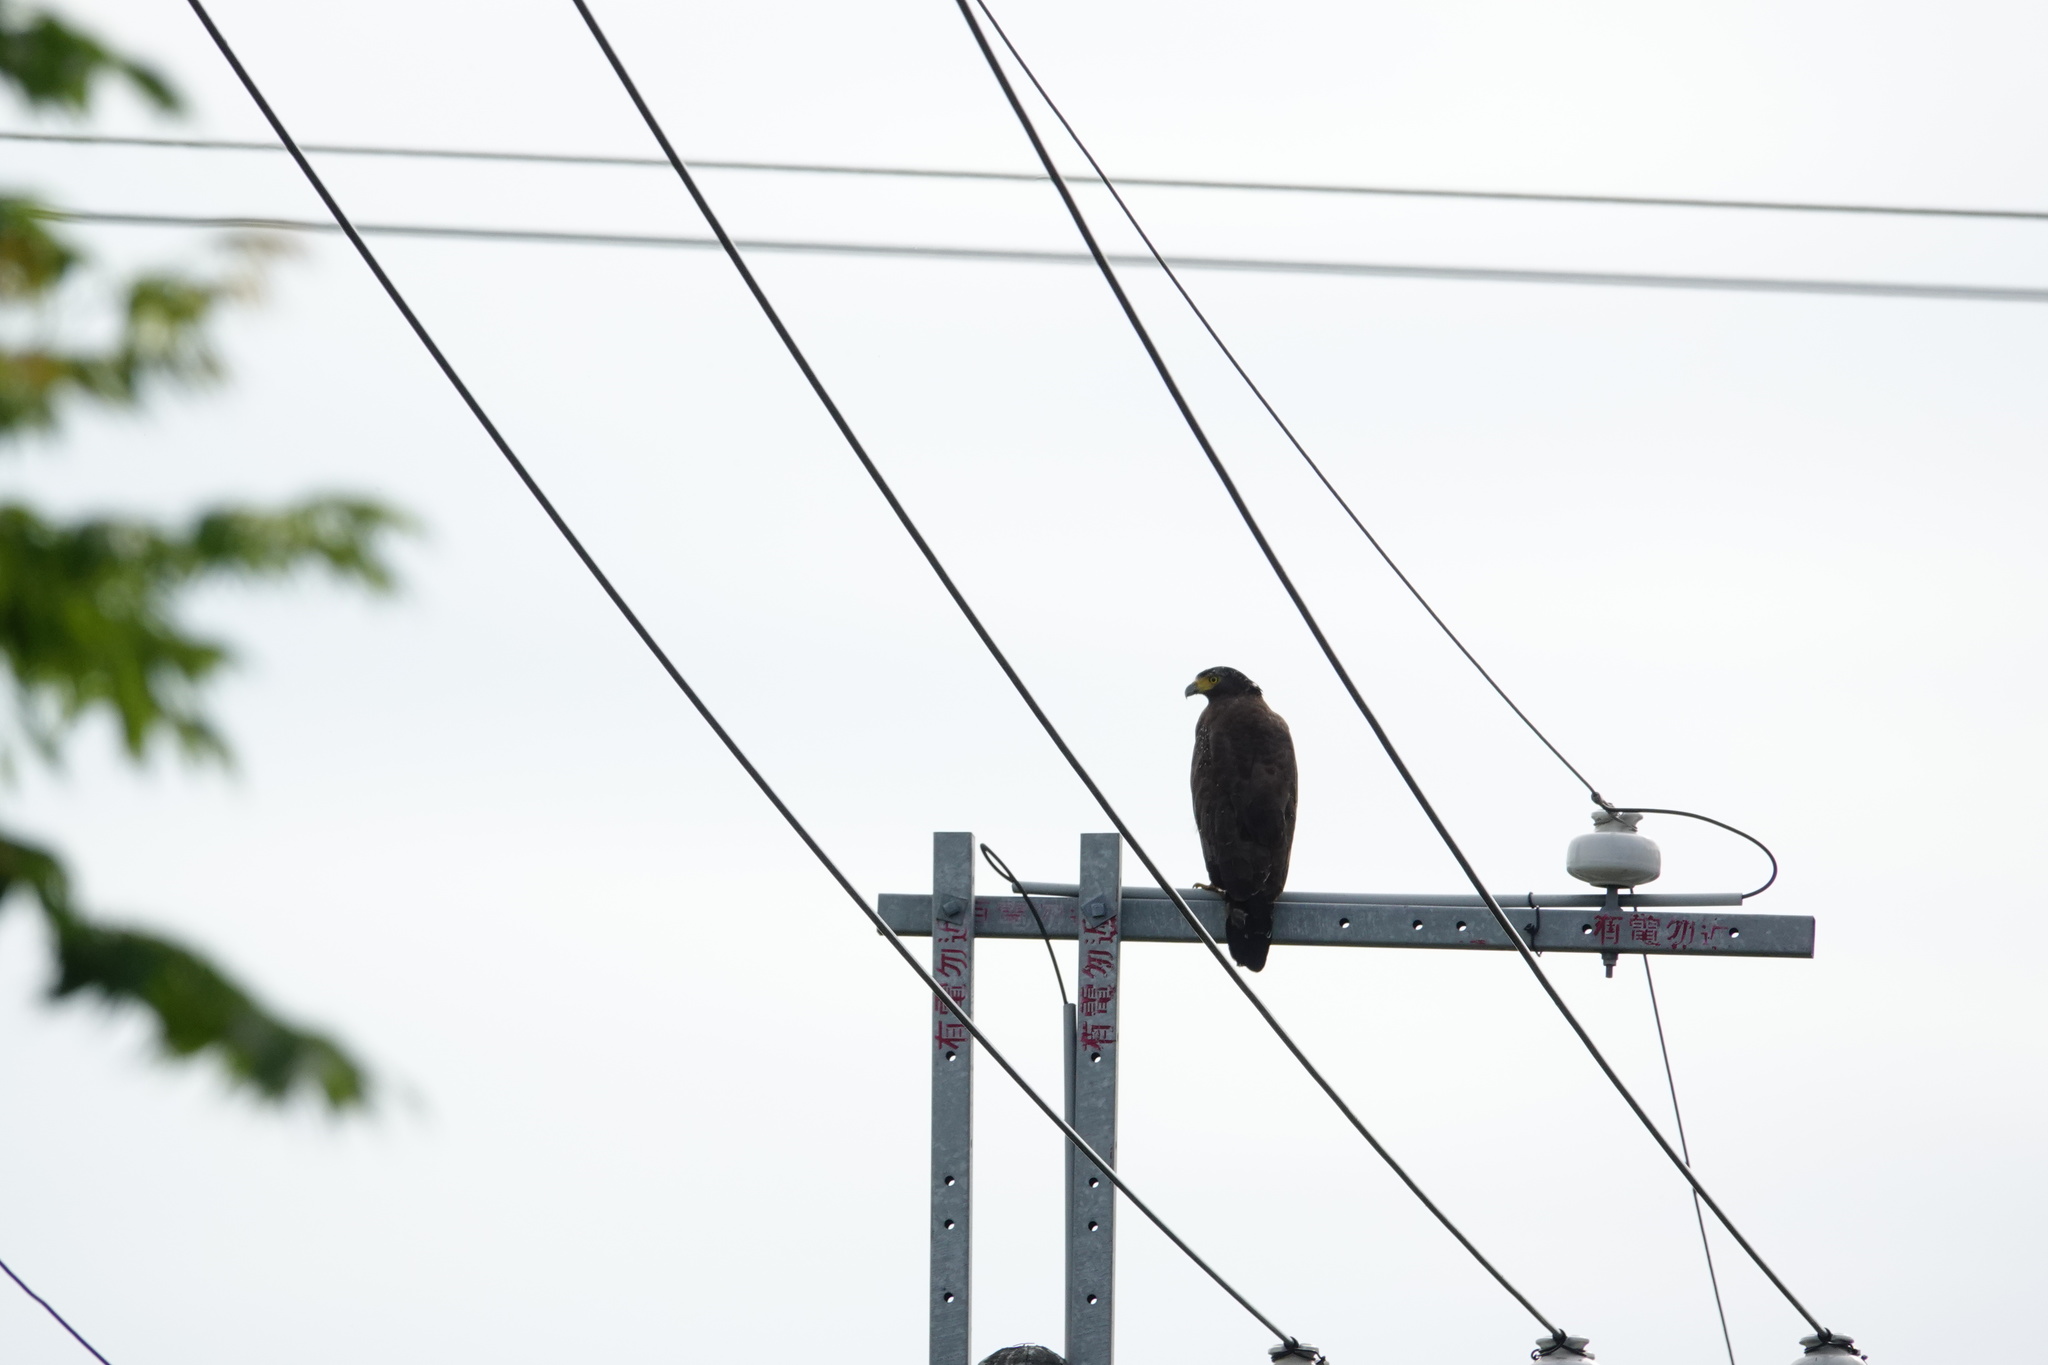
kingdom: Animalia
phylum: Chordata
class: Aves
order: Accipitriformes
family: Accipitridae
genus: Spilornis
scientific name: Spilornis cheela
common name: Crested serpent eagle
